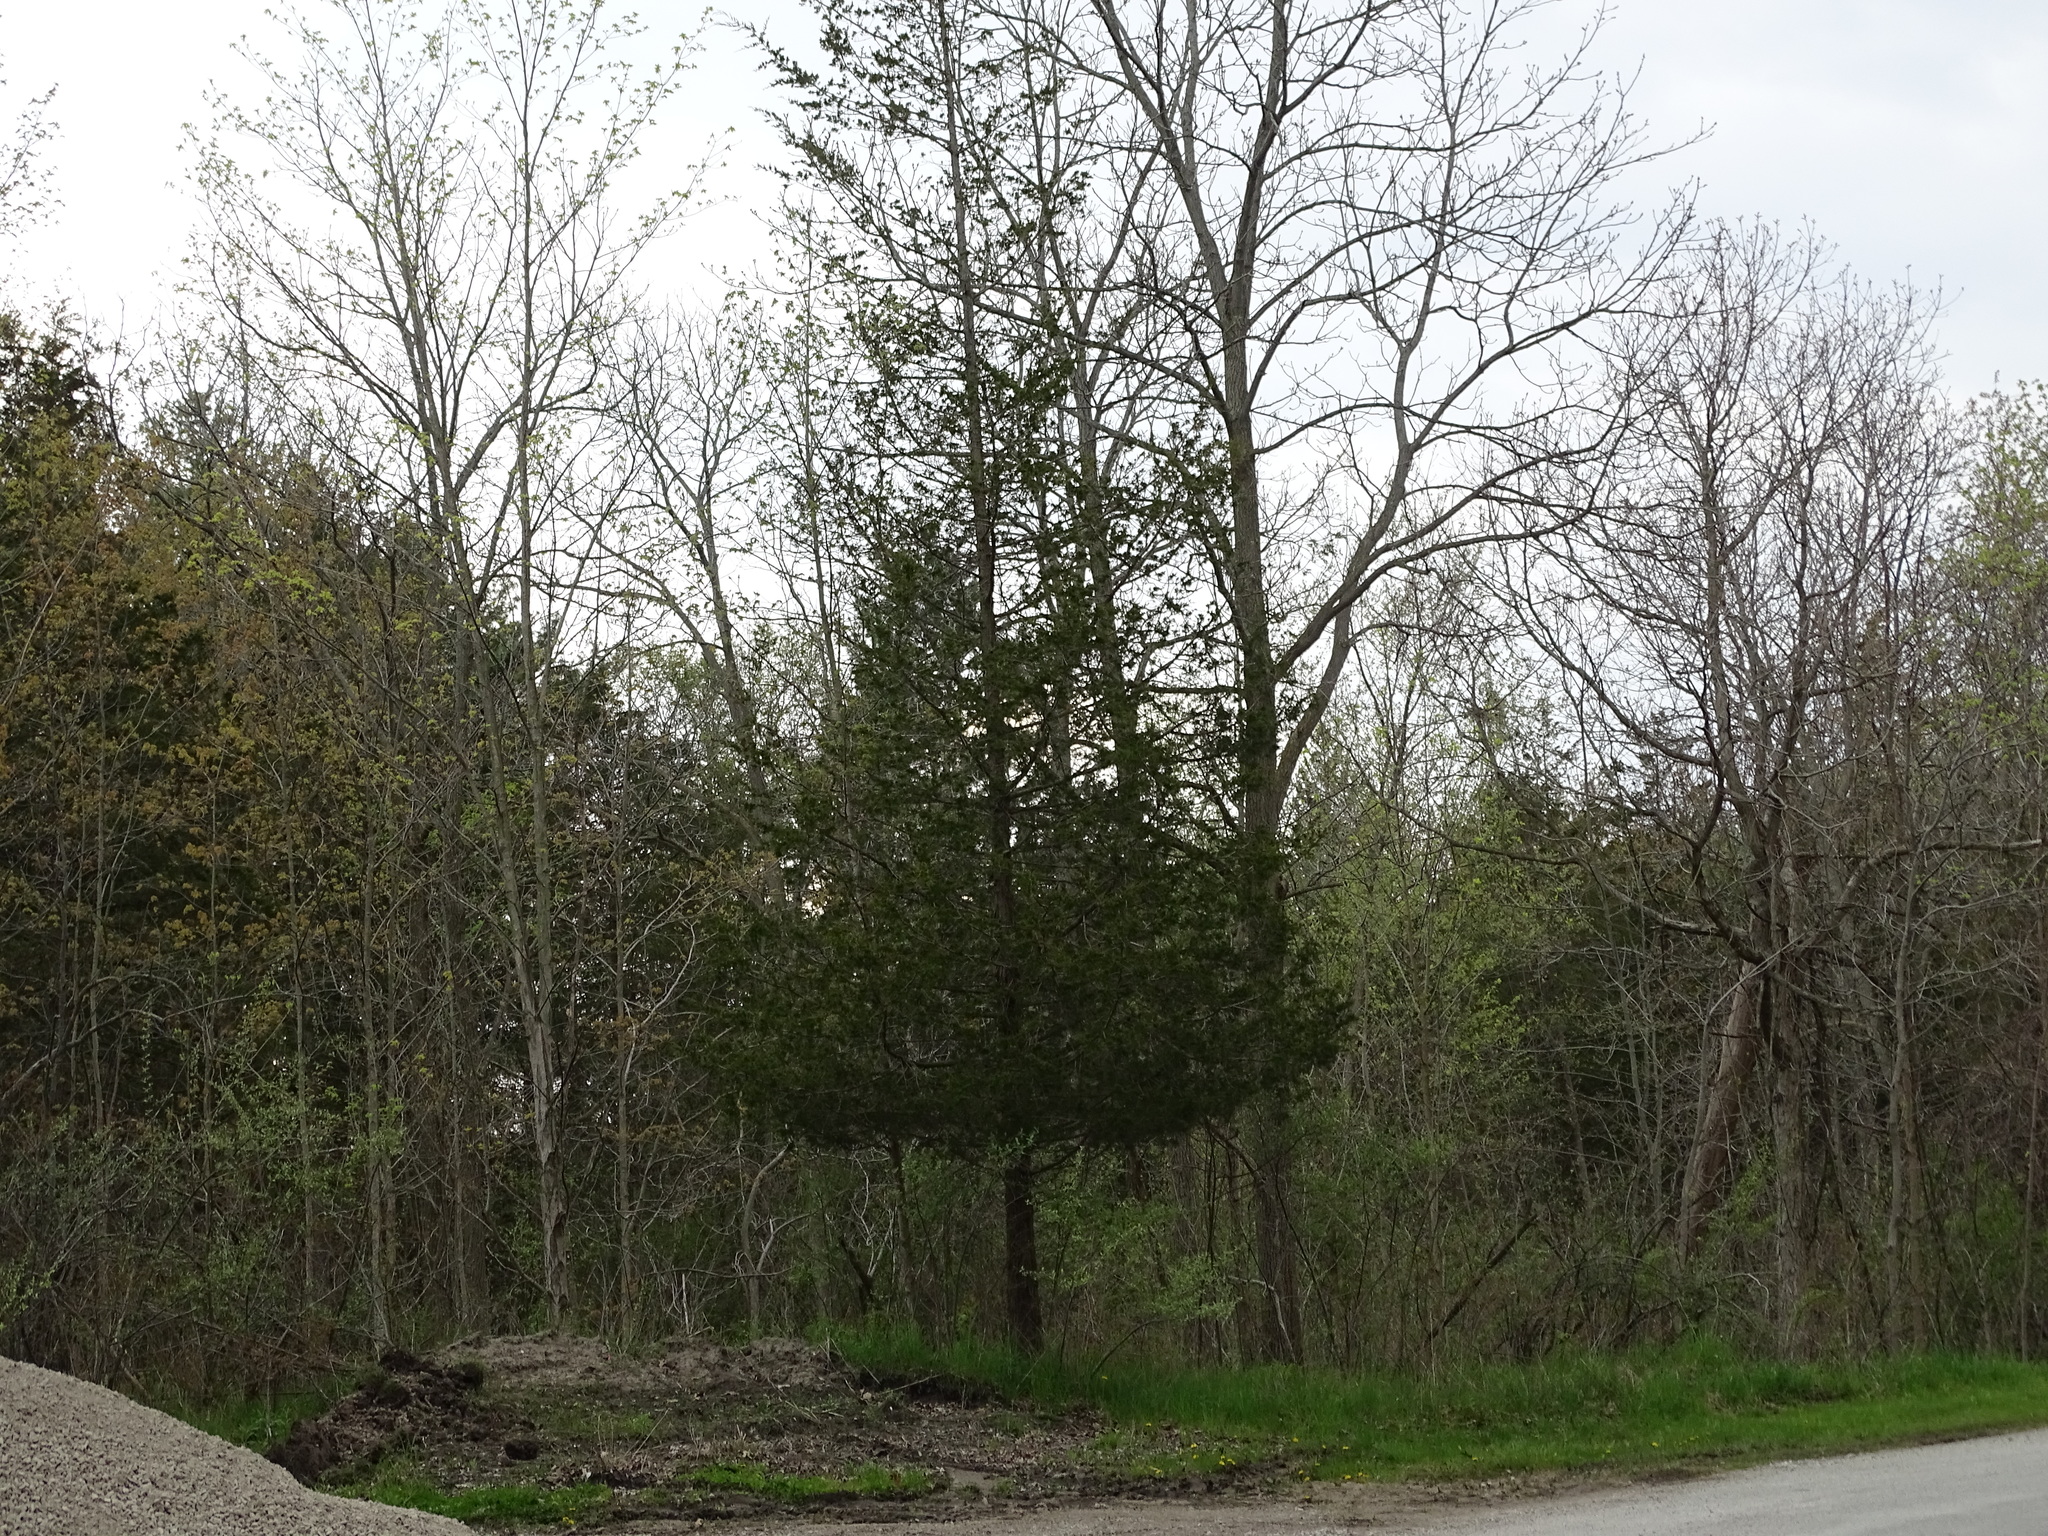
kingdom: Plantae
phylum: Tracheophyta
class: Pinopsida
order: Pinales
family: Cupressaceae
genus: Juniperus
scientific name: Juniperus virginiana
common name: Red juniper
